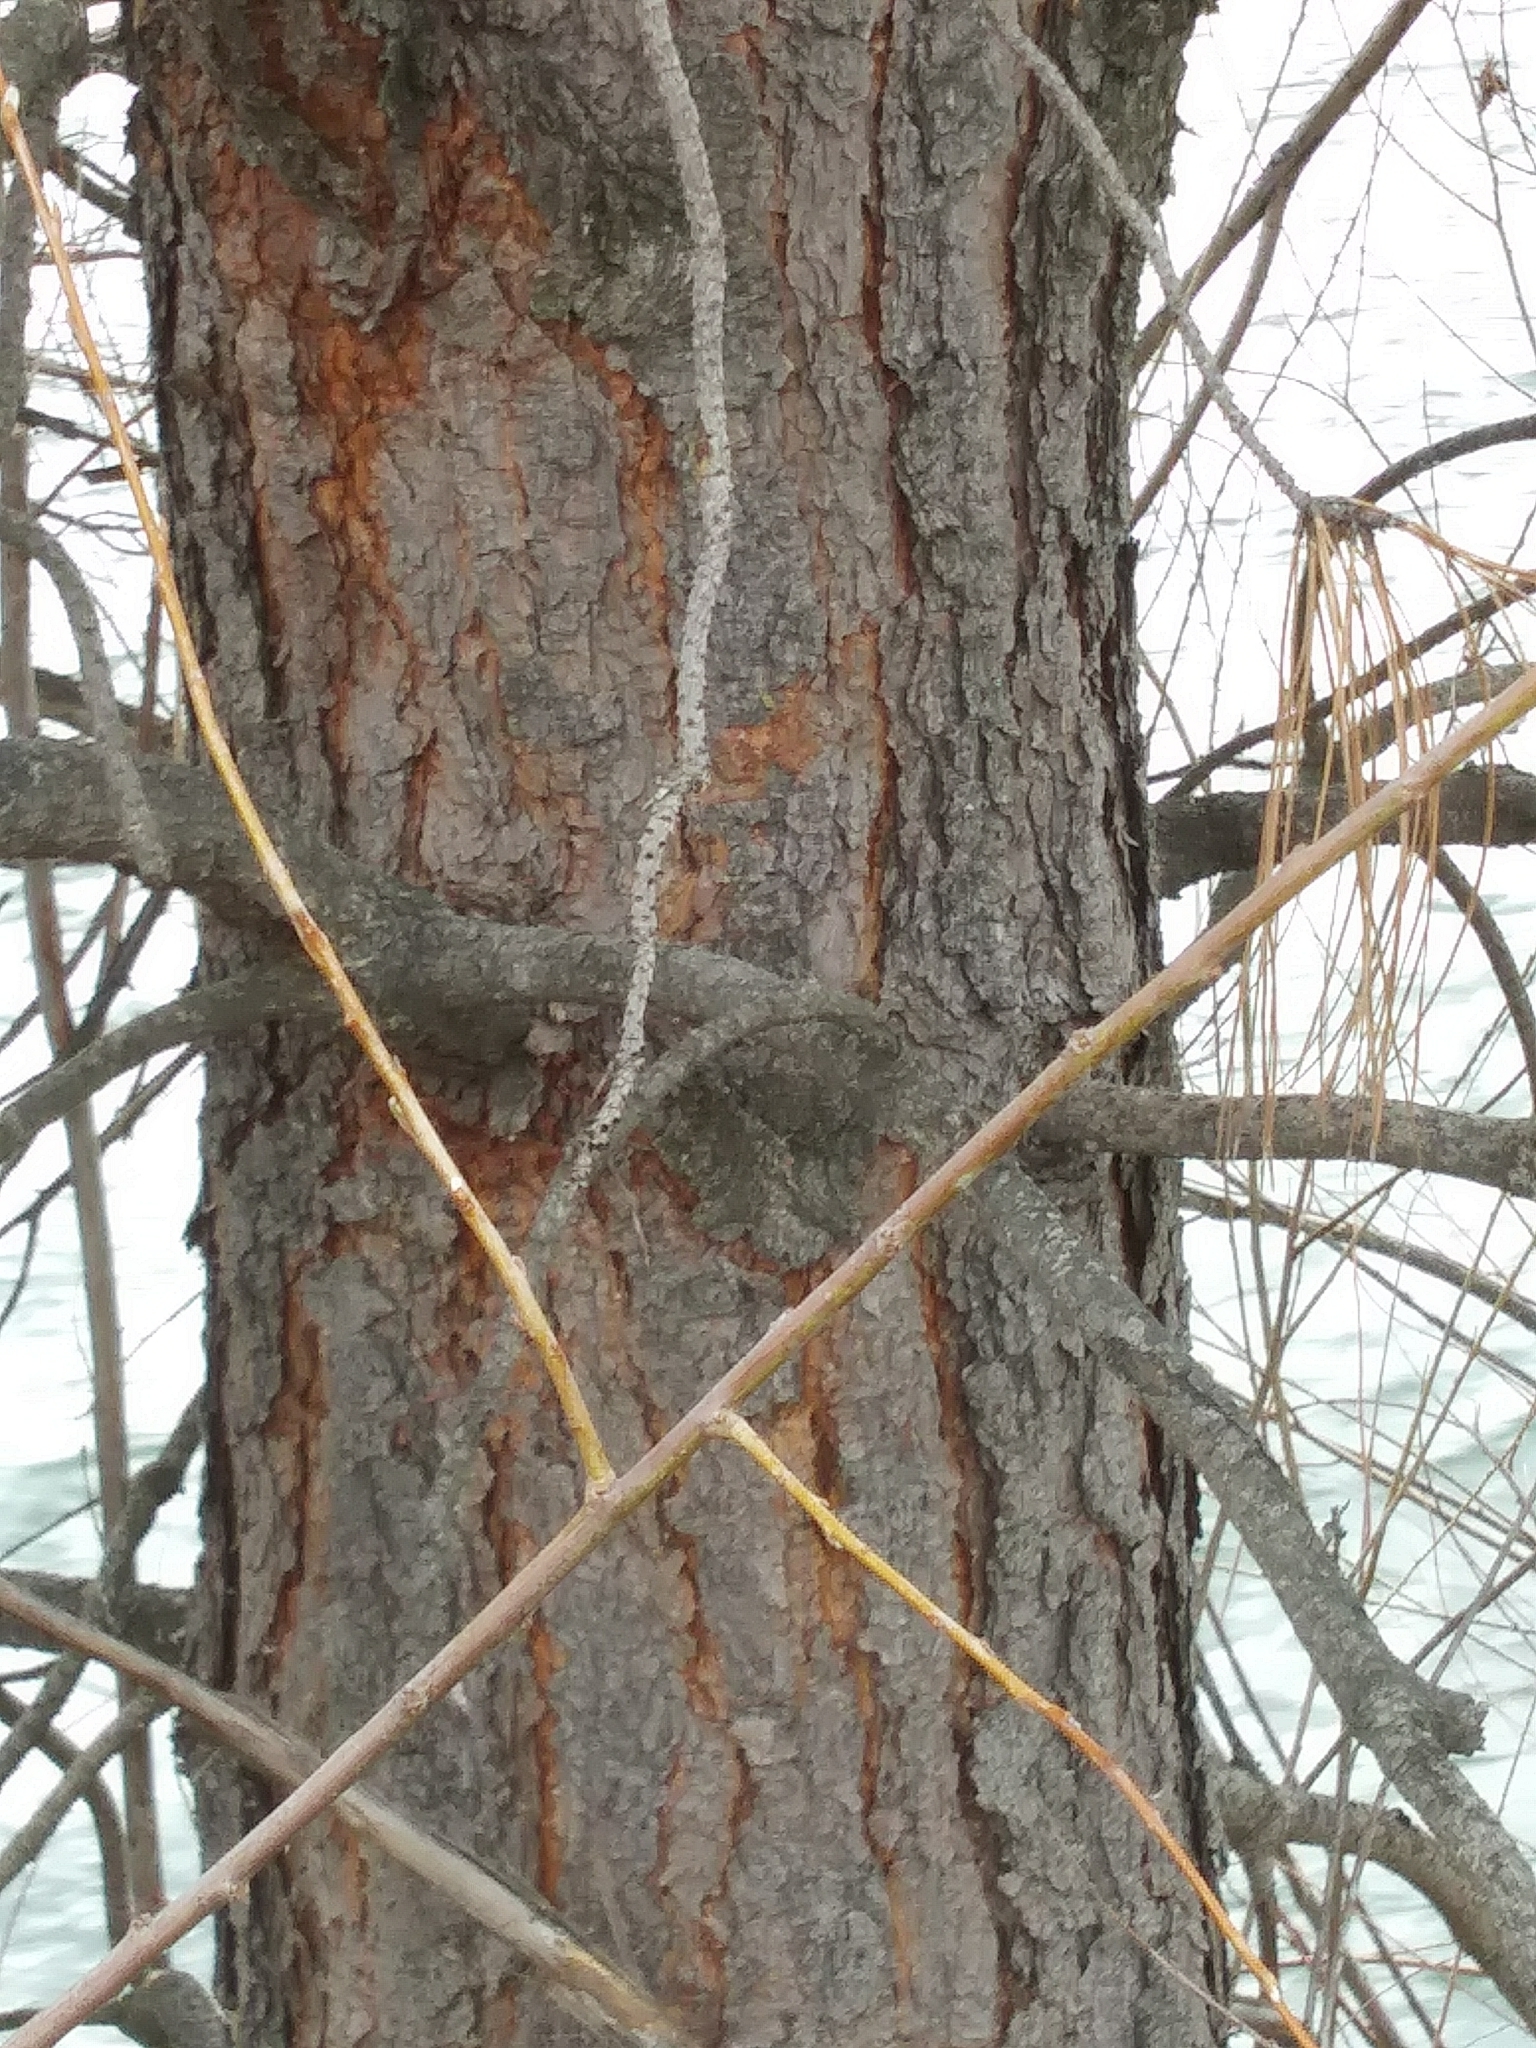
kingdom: Plantae
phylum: Tracheophyta
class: Pinopsida
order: Pinales
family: Pinaceae
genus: Pinus
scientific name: Pinus ponderosa
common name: Western yellow-pine
